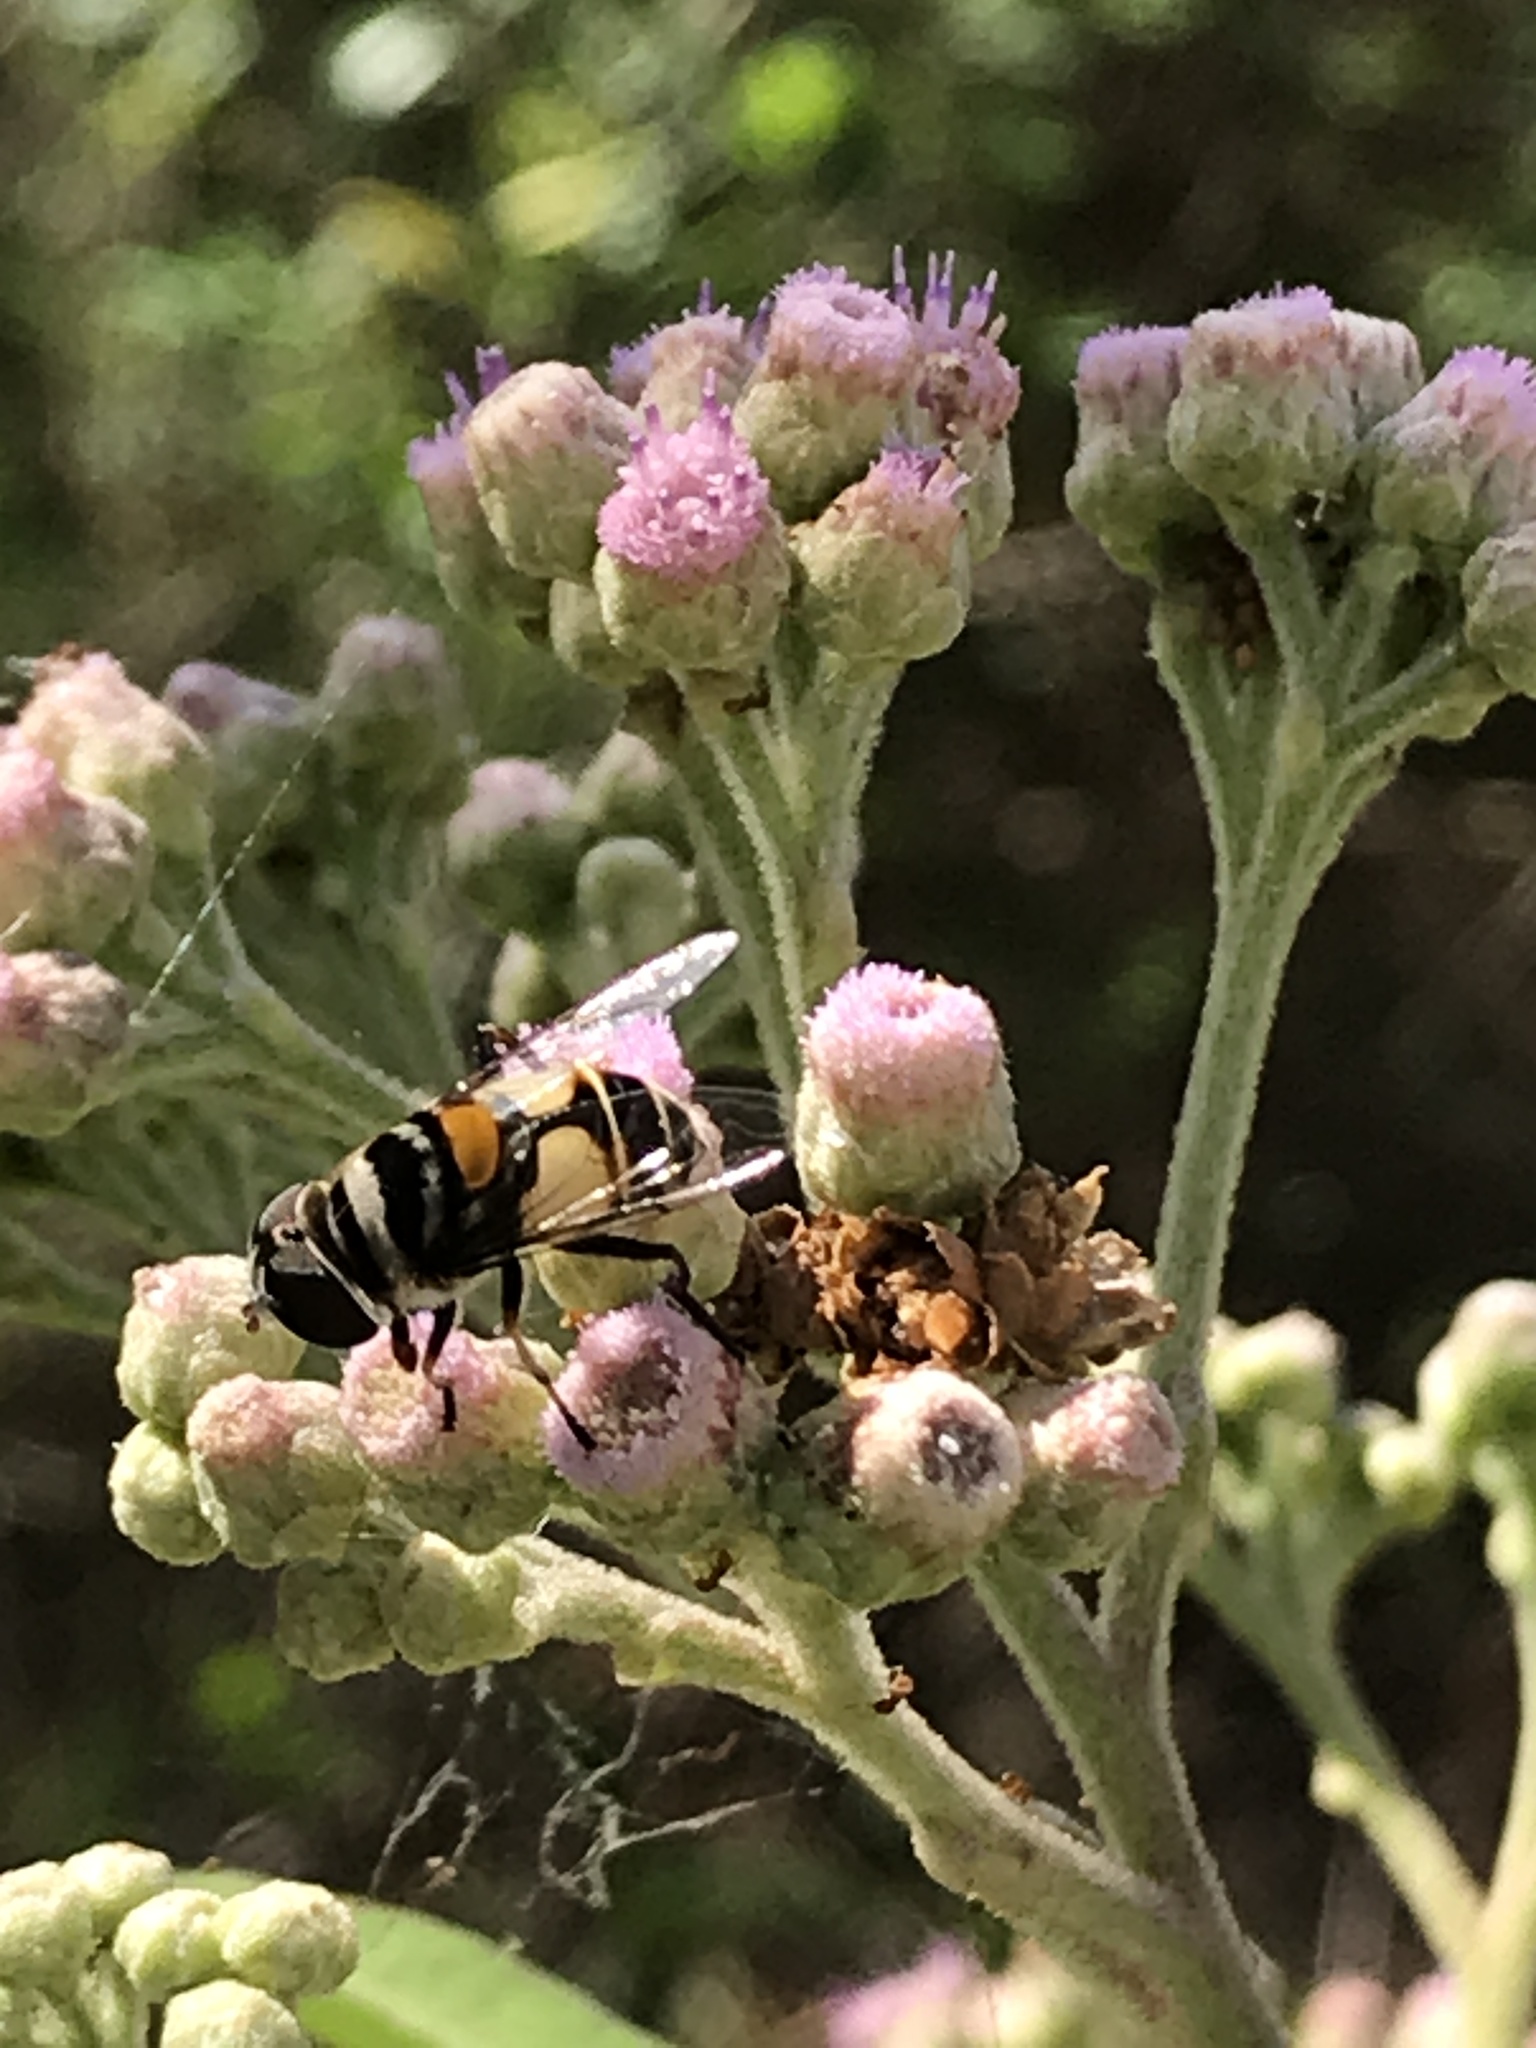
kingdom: Animalia
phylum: Arthropoda
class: Insecta
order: Diptera
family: Syrphidae
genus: Palpada
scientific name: Palpada albifrons
